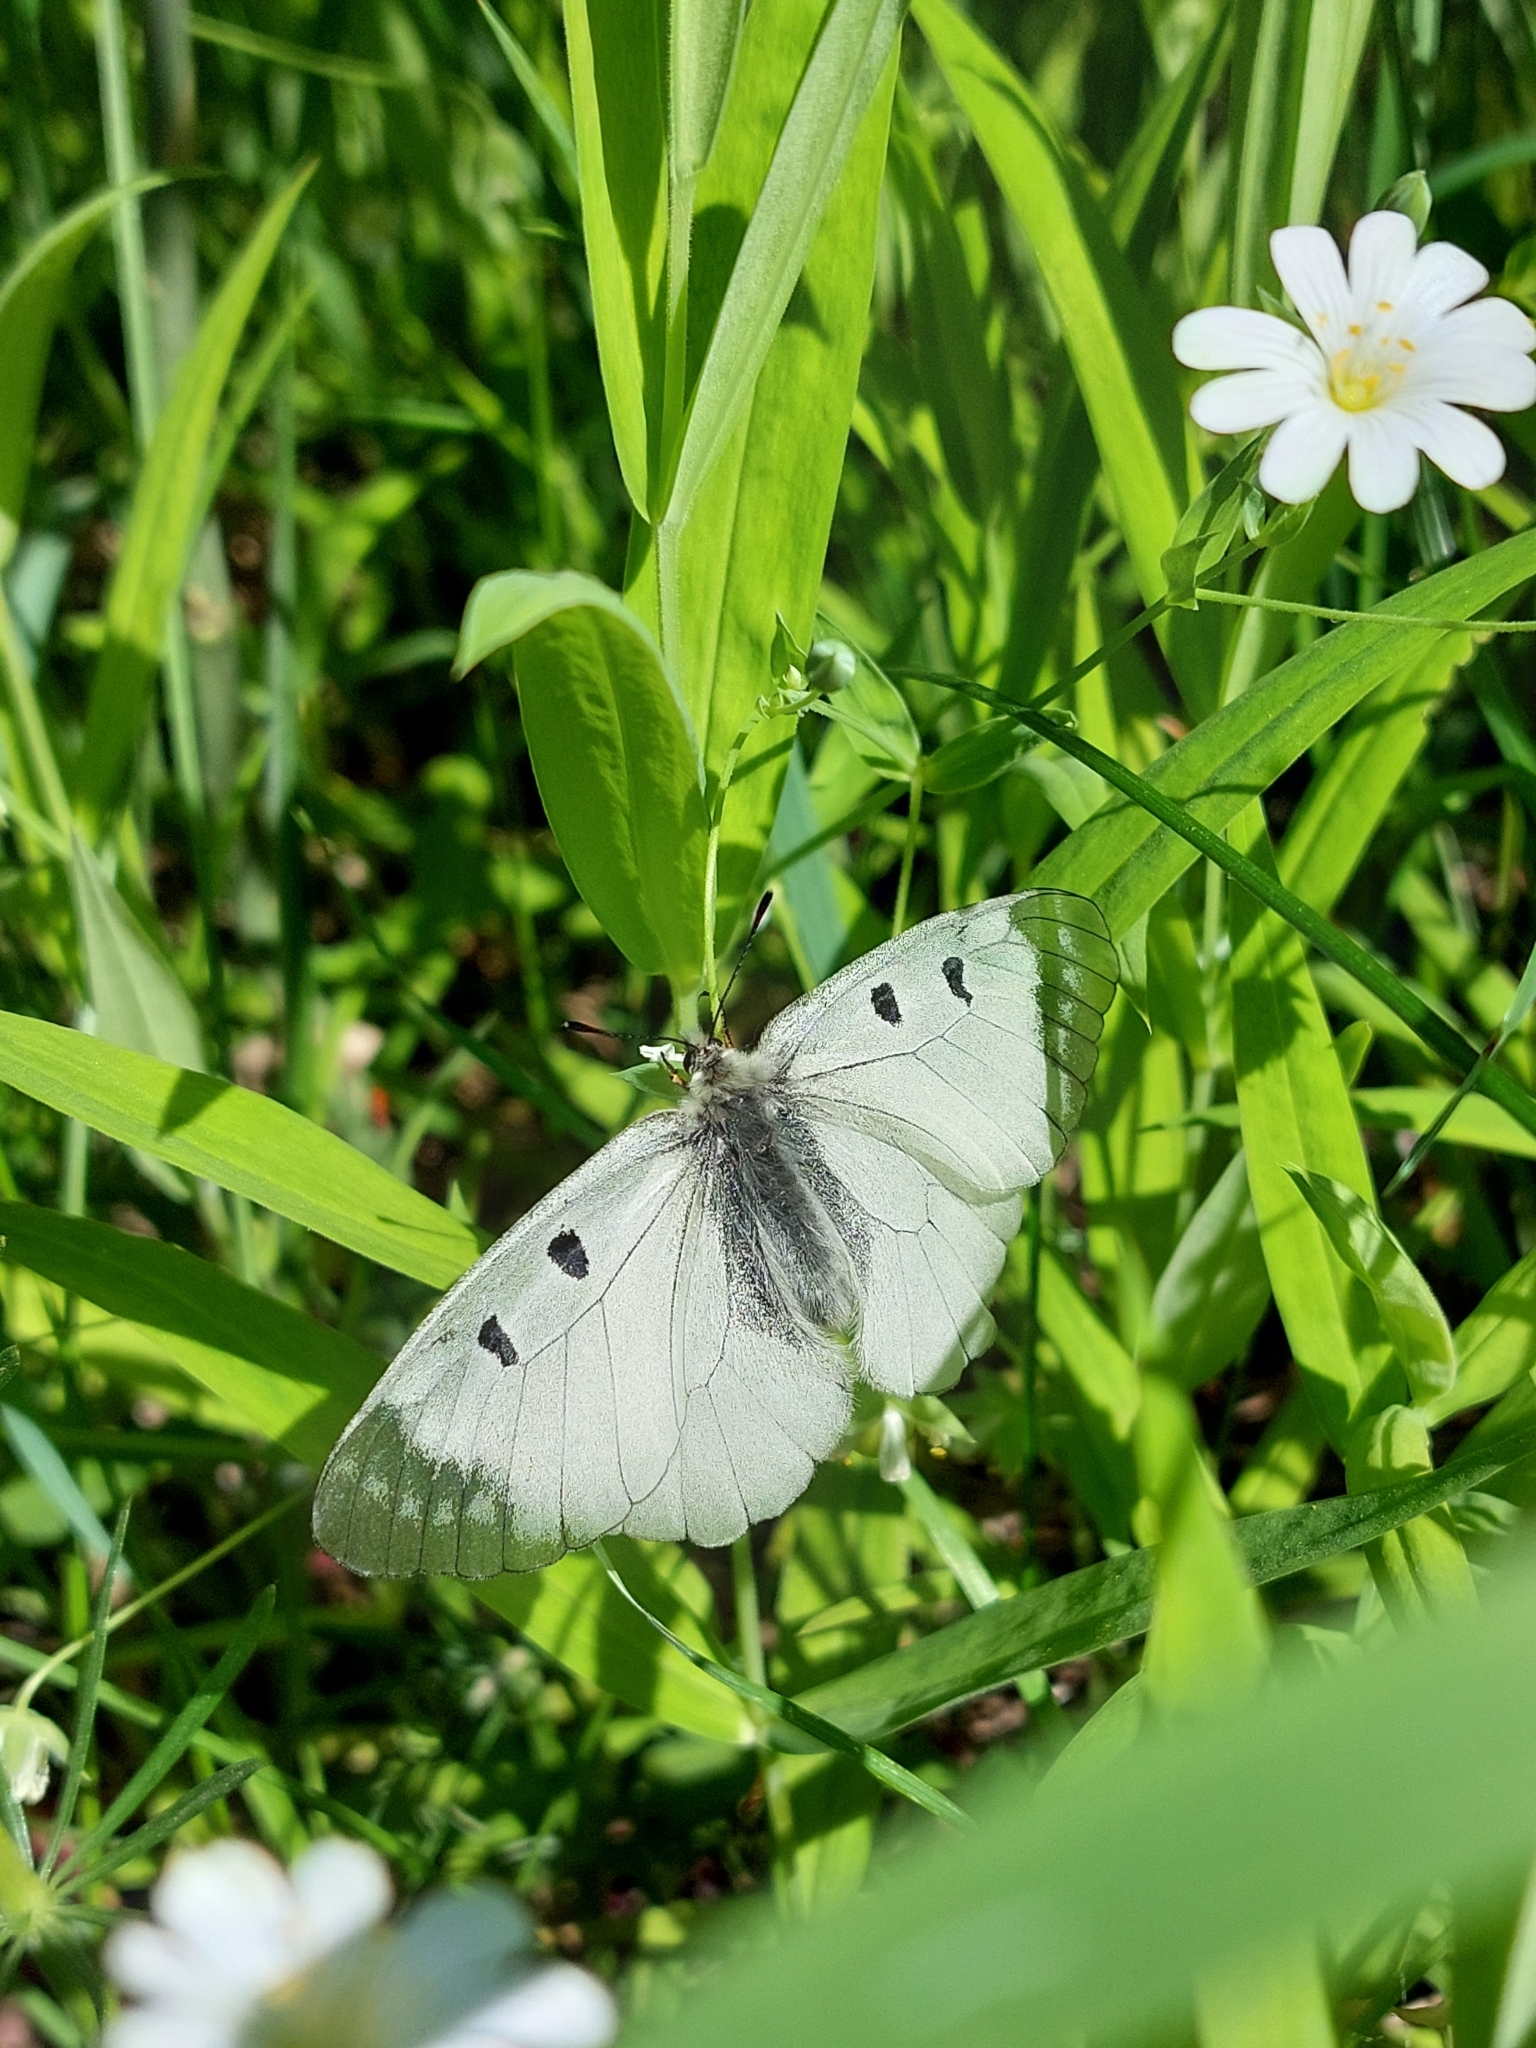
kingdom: Animalia
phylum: Arthropoda
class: Insecta
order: Lepidoptera
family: Papilionidae
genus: Parnassius
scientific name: Parnassius mnemosyne
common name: Clouded apollo
